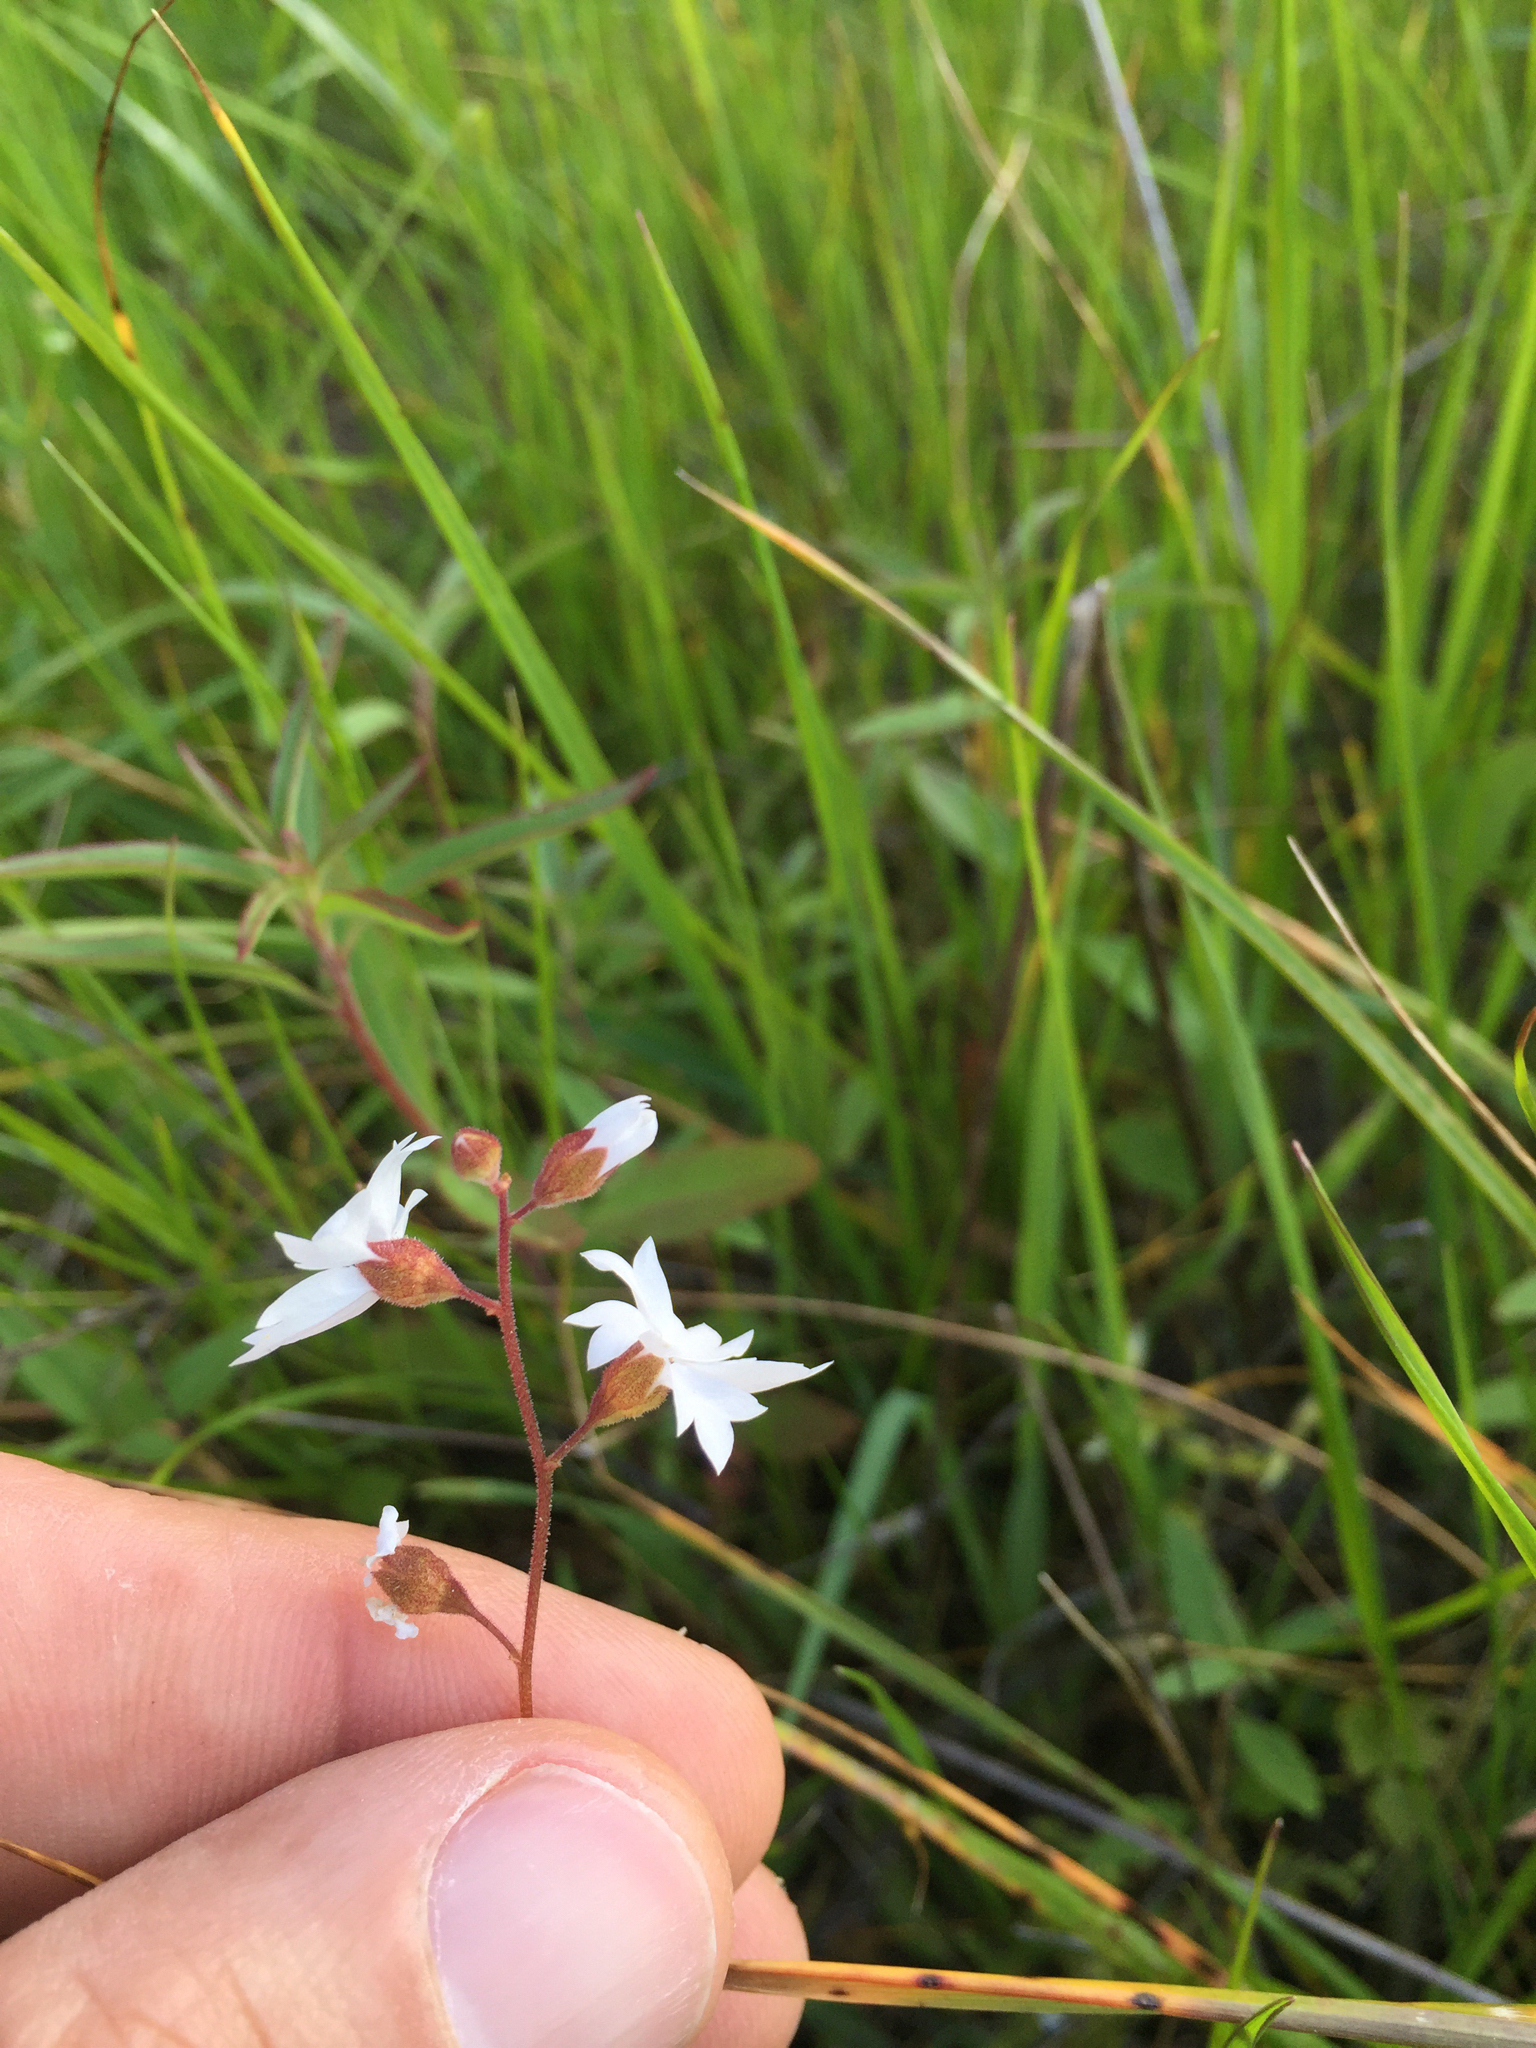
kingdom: Plantae
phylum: Tracheophyta
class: Magnoliopsida
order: Saxifragales
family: Saxifragaceae
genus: Lithophragma
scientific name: Lithophragma affine
